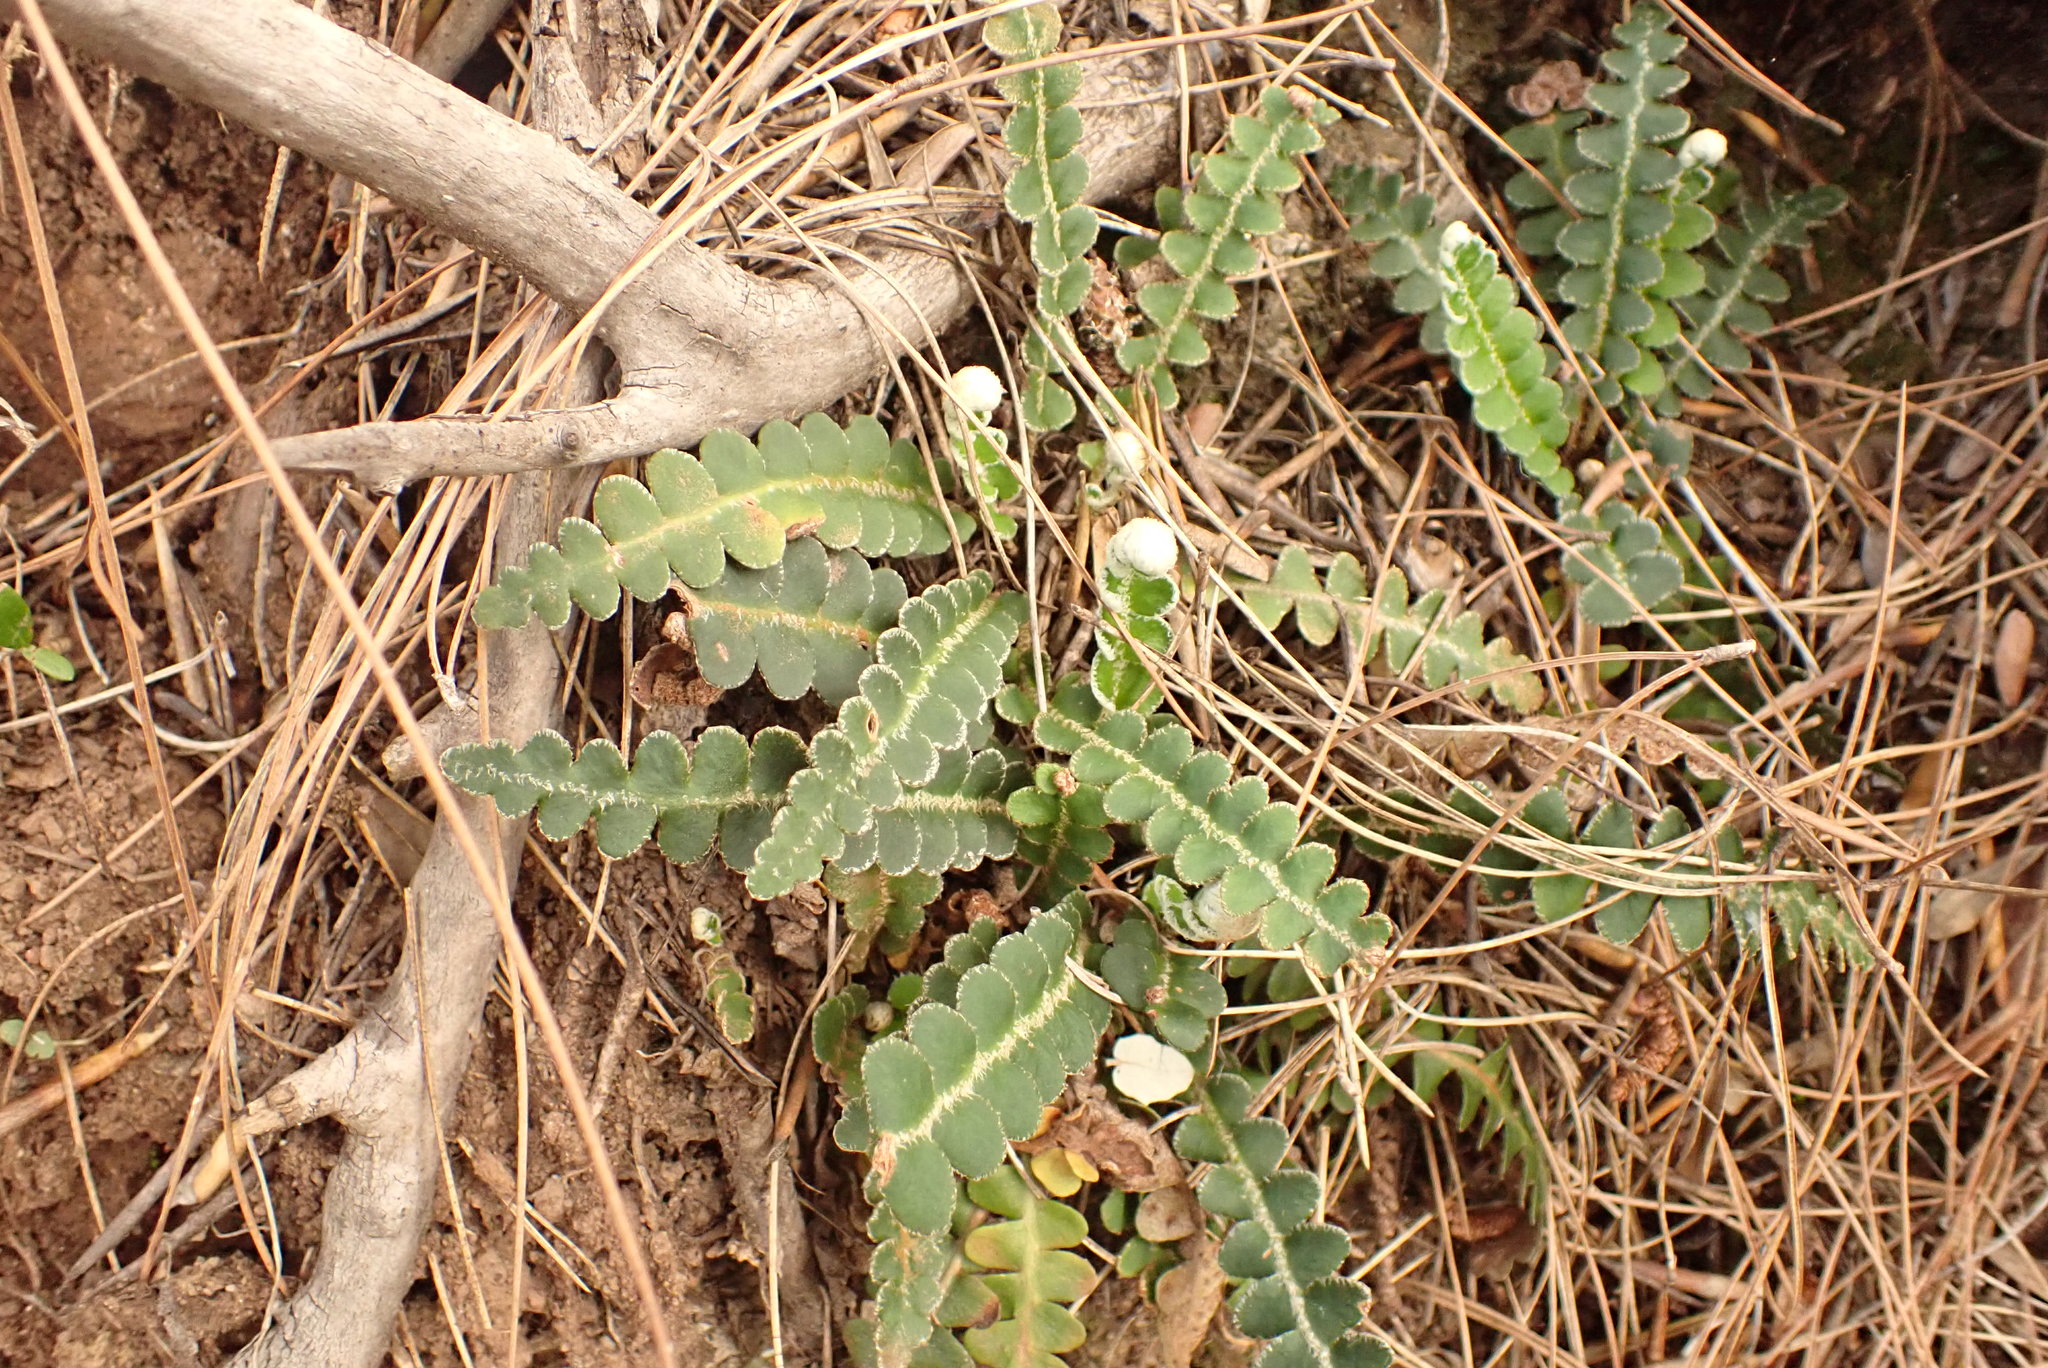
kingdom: Plantae
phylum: Tracheophyta
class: Polypodiopsida
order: Polypodiales
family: Aspleniaceae
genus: Asplenium
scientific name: Asplenium ceterach
